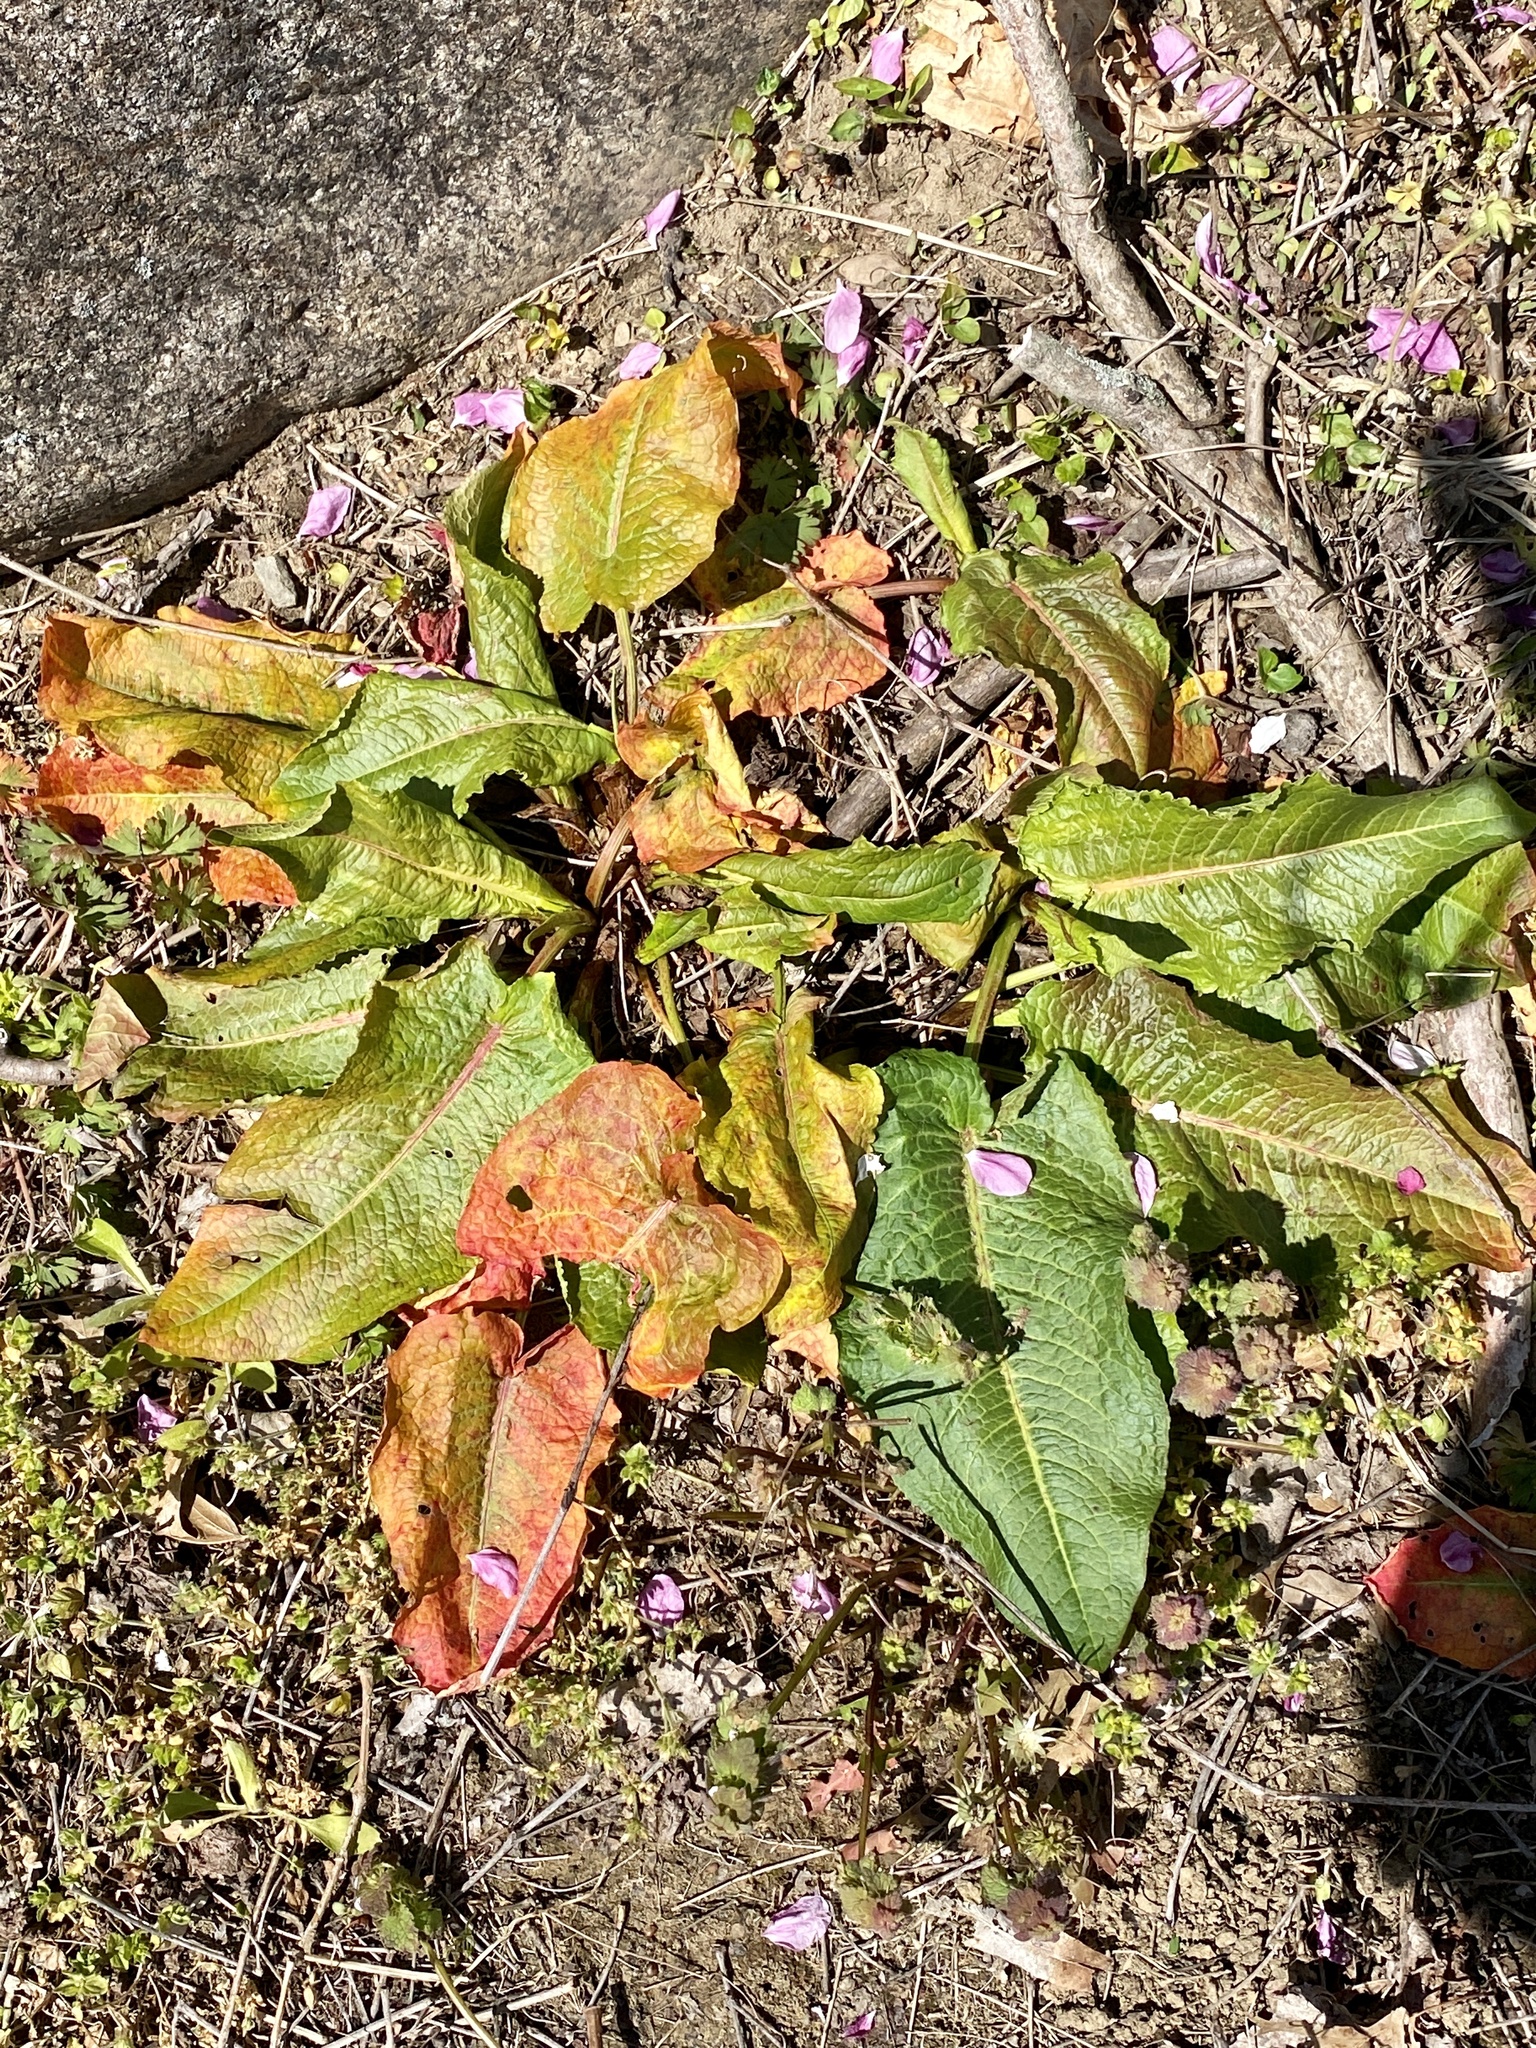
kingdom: Plantae
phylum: Tracheophyta
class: Magnoliopsida
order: Caryophyllales
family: Polygonaceae
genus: Rumex
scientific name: Rumex obtusifolius
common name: Bitter dock
